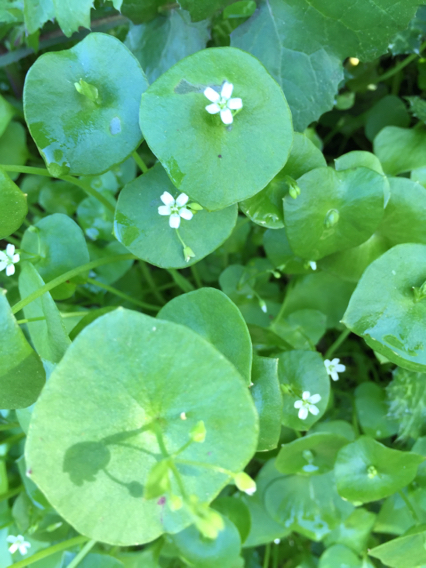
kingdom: Plantae
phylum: Tracheophyta
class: Magnoliopsida
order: Caryophyllales
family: Montiaceae
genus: Claytonia
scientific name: Claytonia perfoliata
